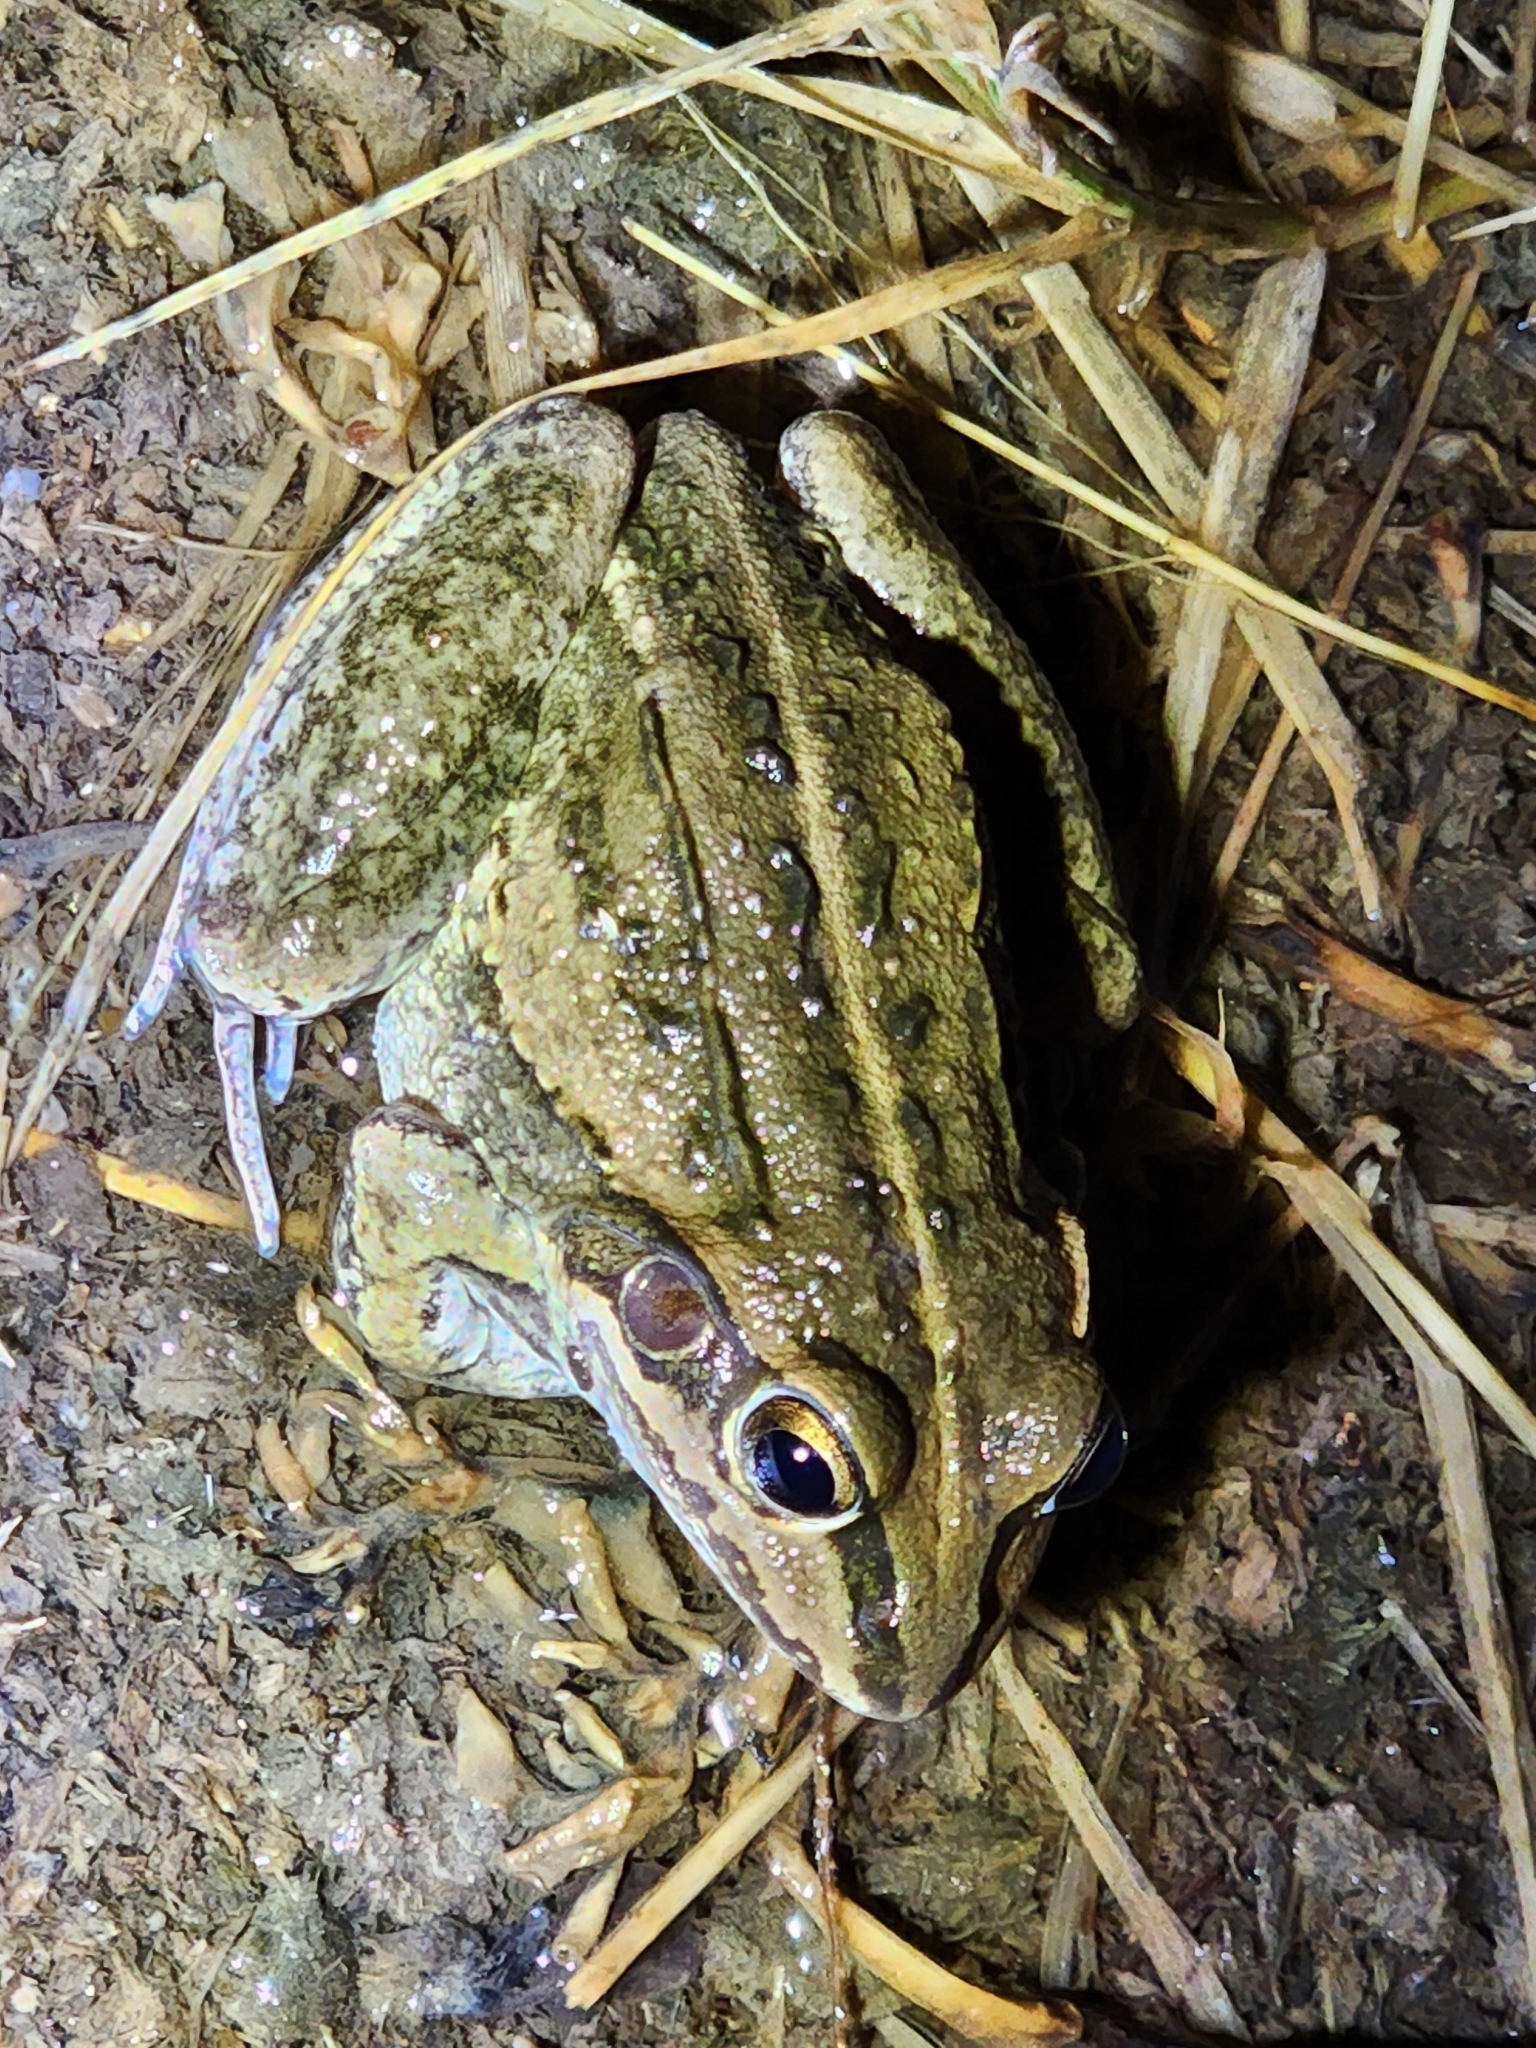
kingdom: Animalia
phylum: Chordata
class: Amphibia
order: Anura
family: Pelodryadidae
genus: Ranoidea
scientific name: Ranoidea alboguttata
